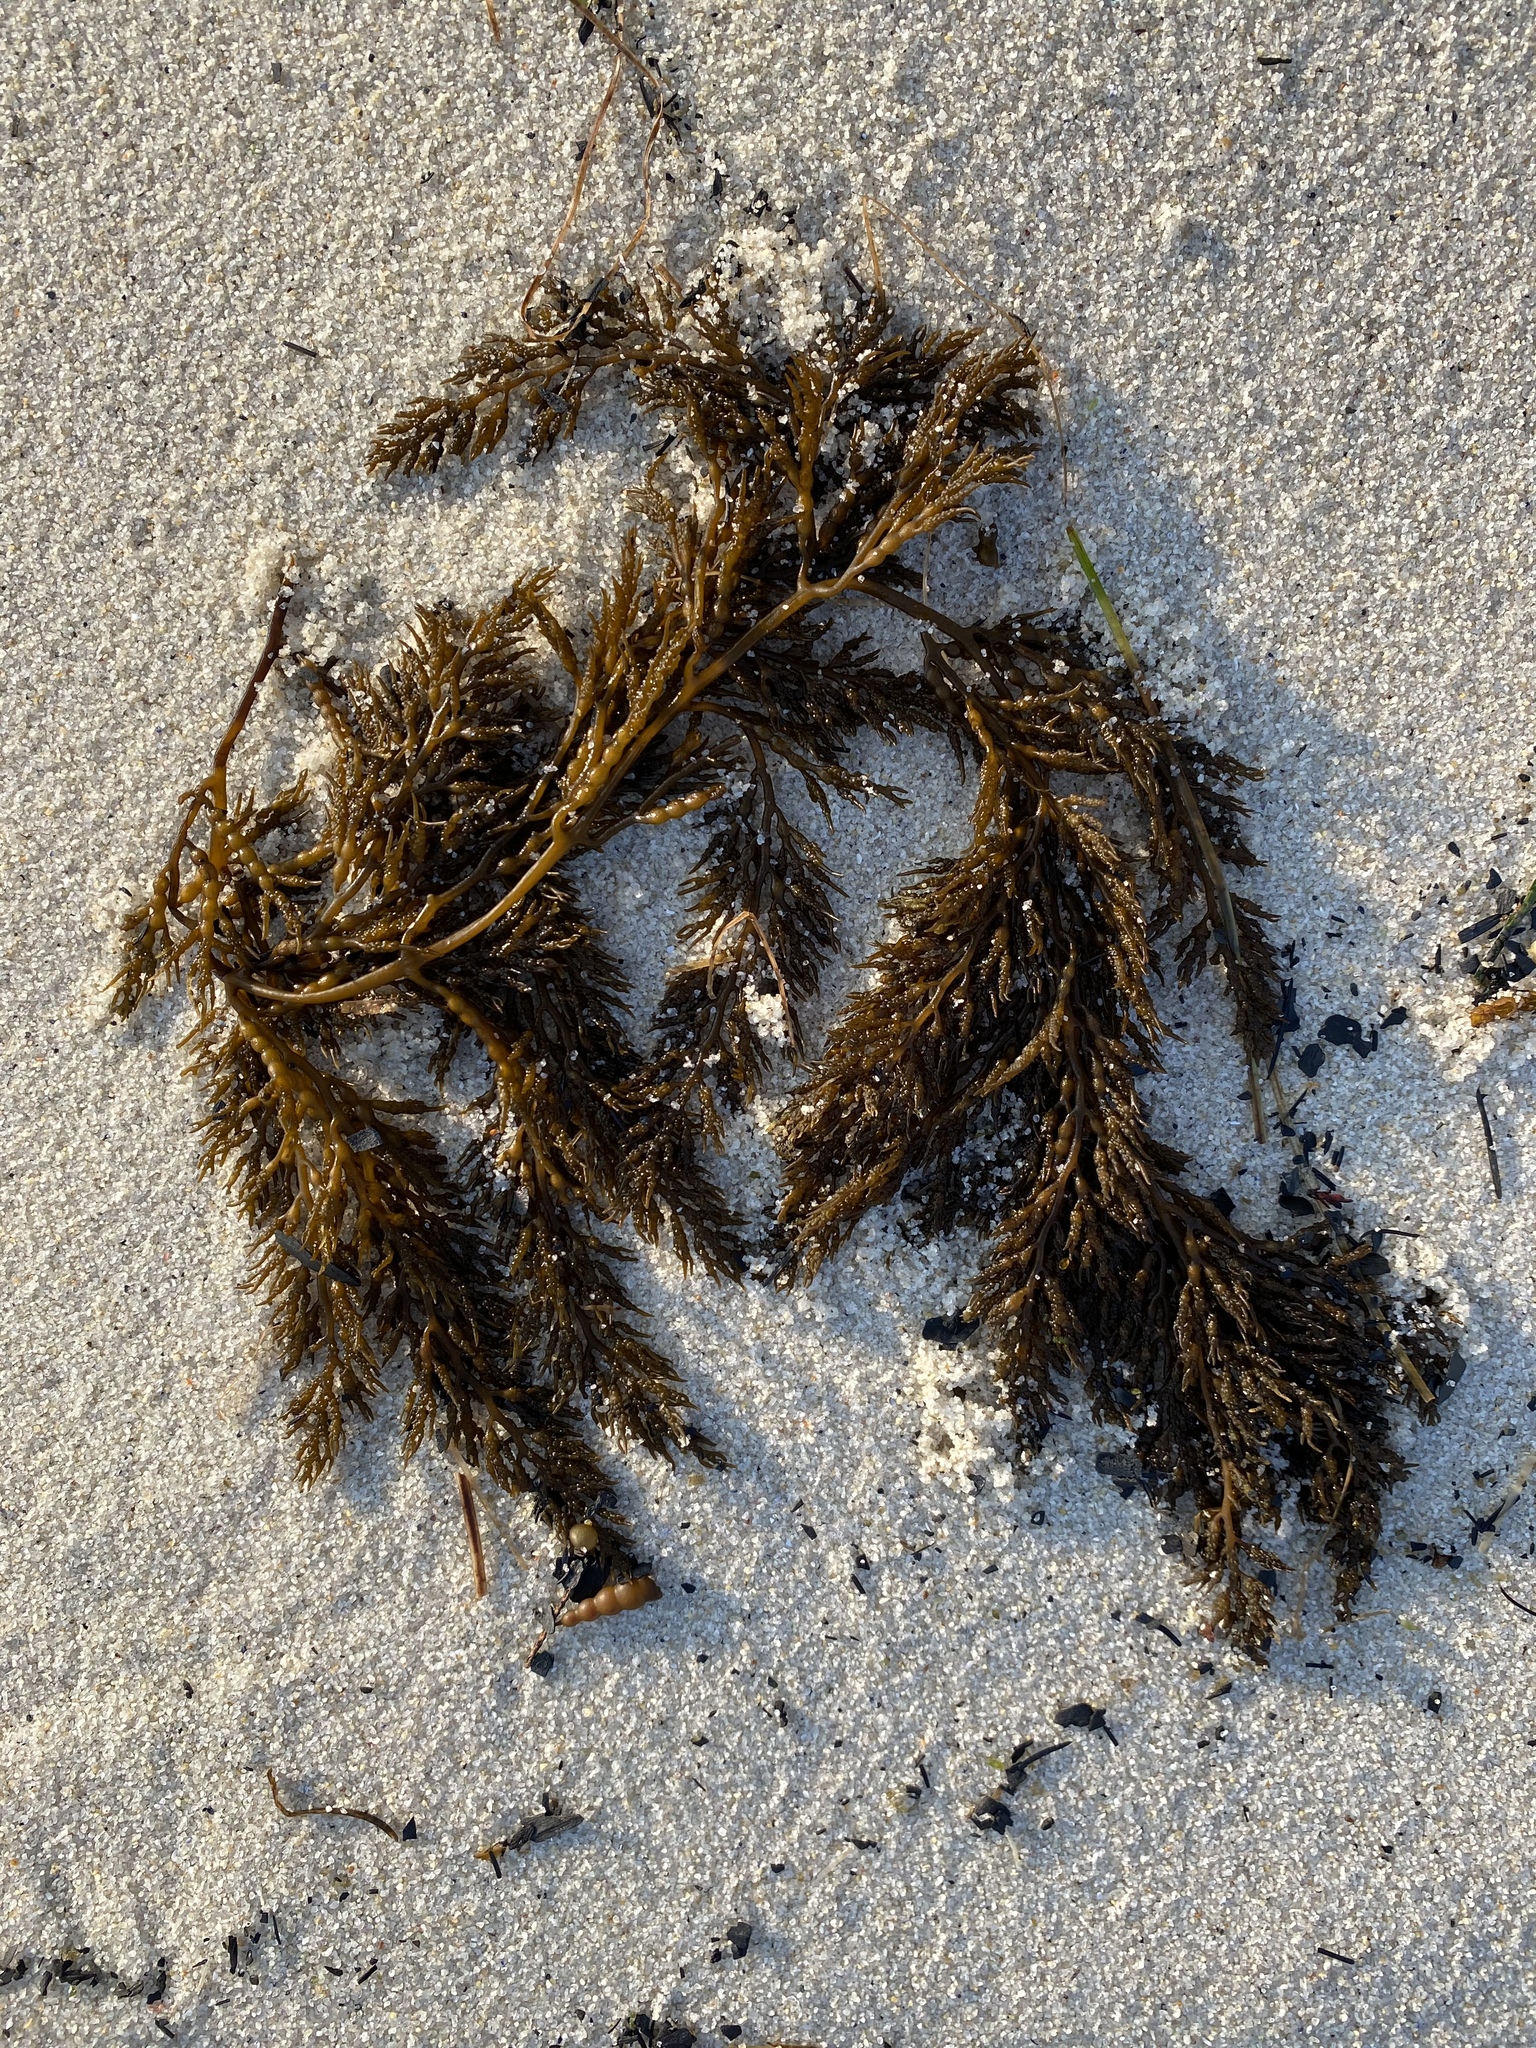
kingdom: Chromista
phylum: Ochrophyta
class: Phaeophyceae
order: Fucales
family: Sargassaceae
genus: Stephanocystis
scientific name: Stephanocystis
